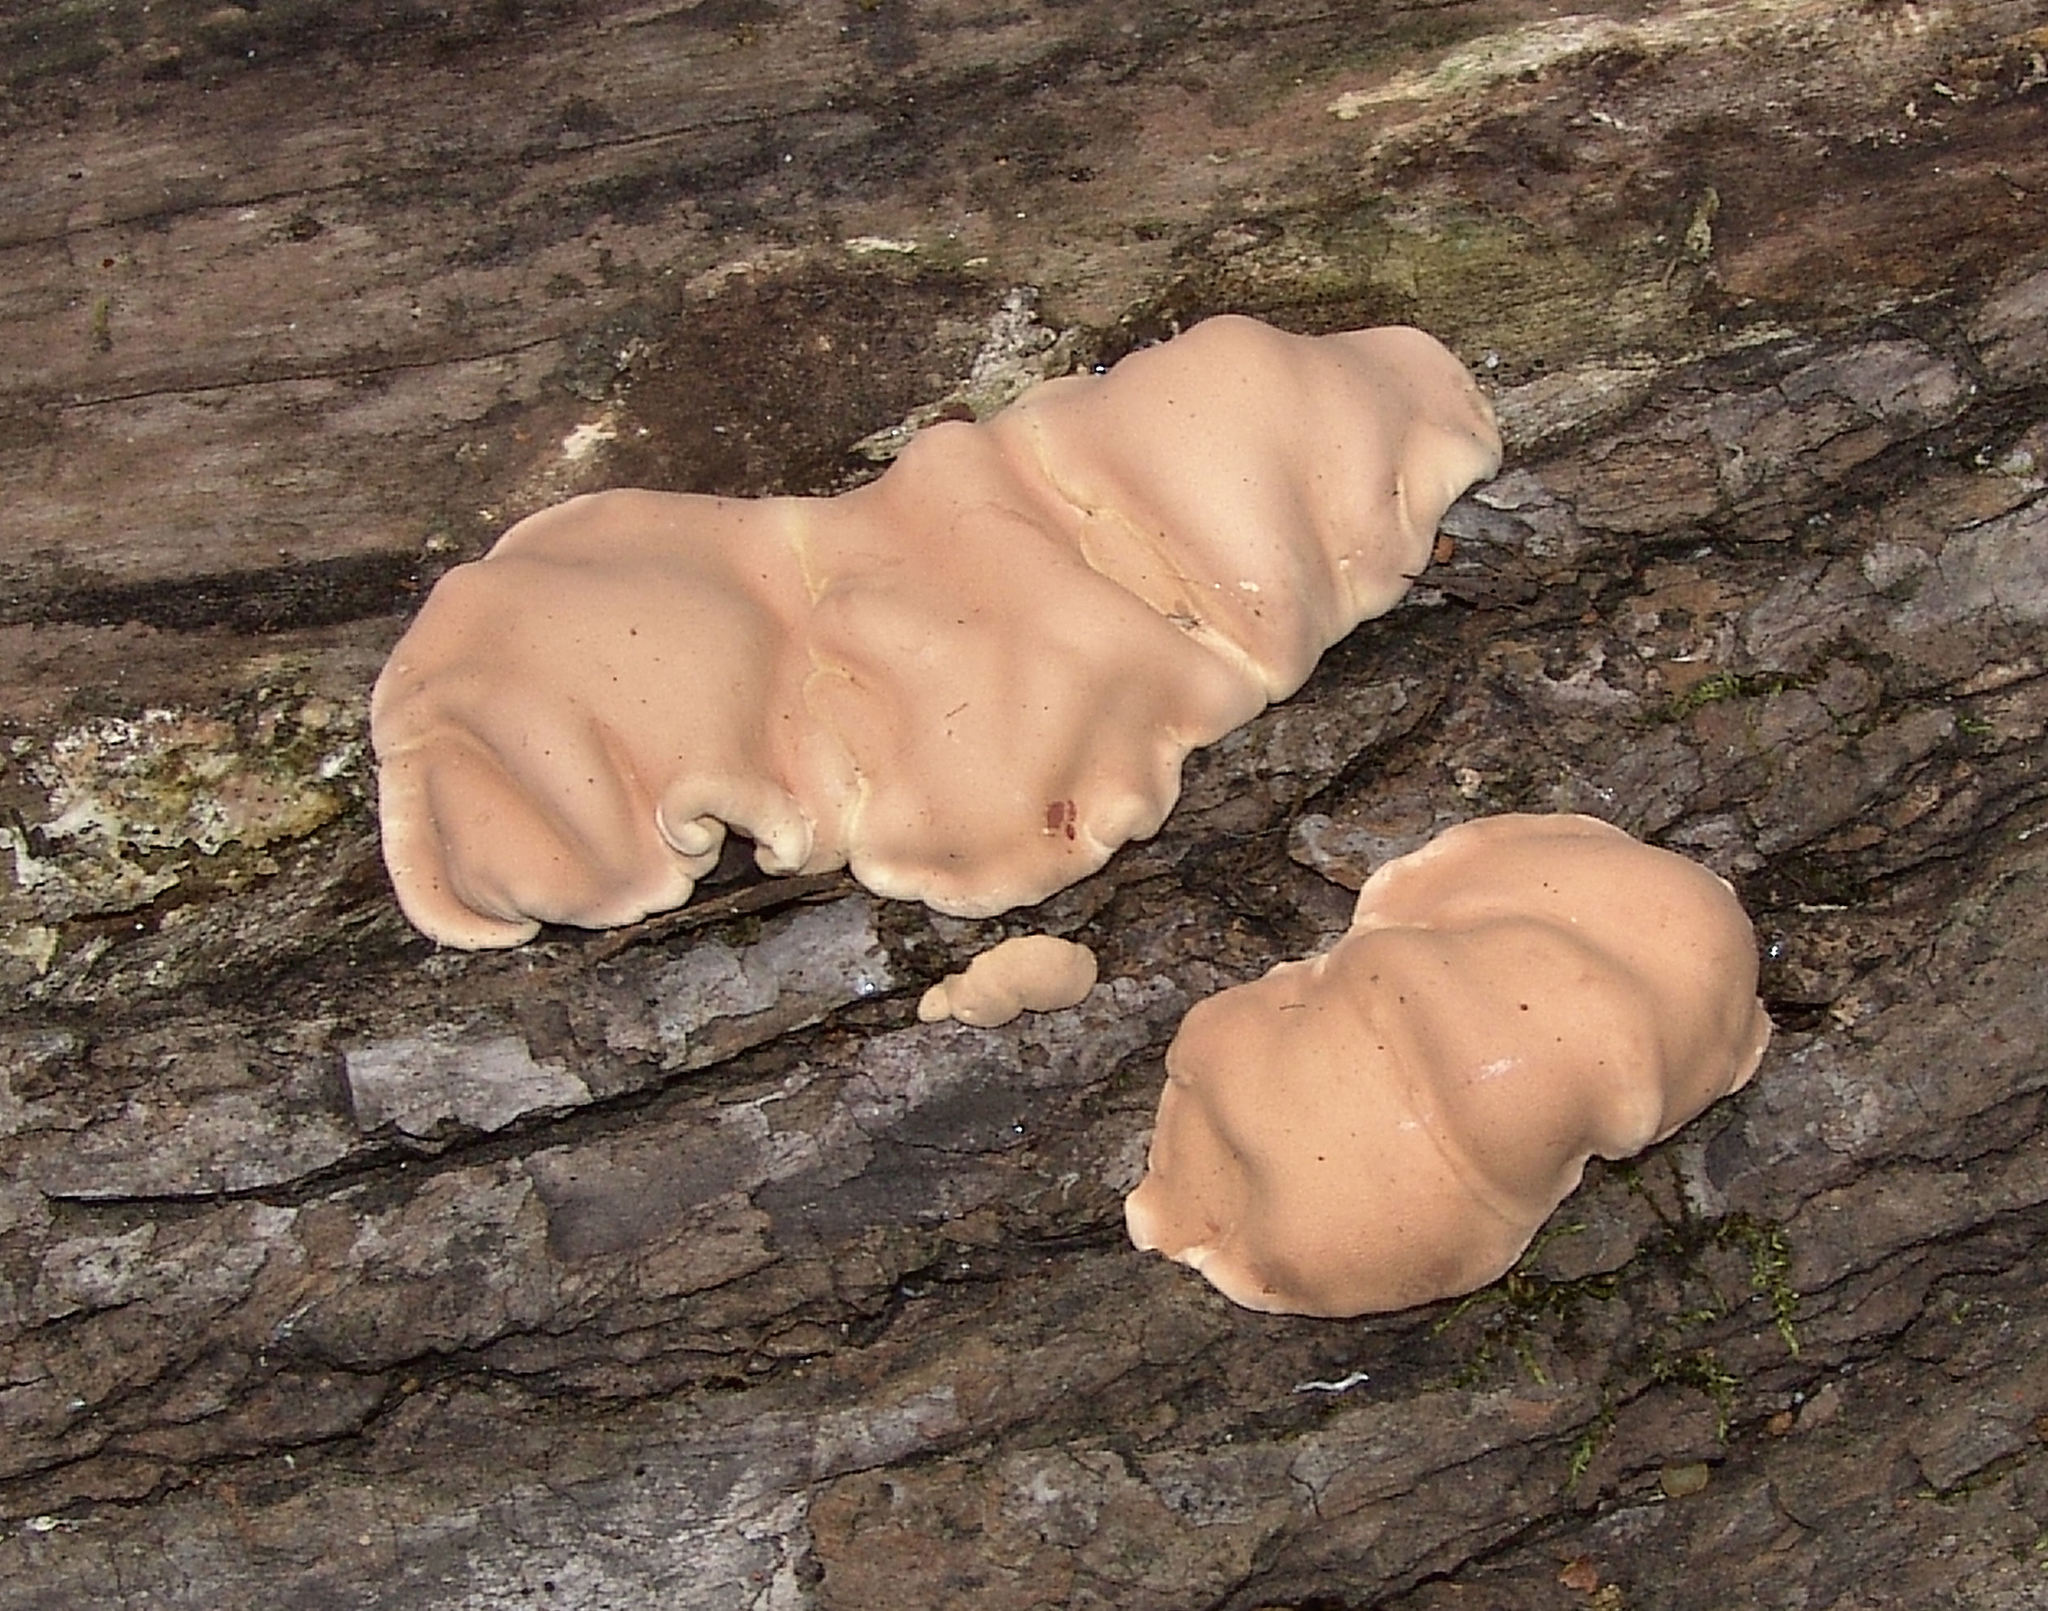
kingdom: Fungi
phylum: Ascomycota
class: Sordariomycetes
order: Hypocreales
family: Hypocreaceae
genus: Trichoderma
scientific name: Trichoderma peltatum
